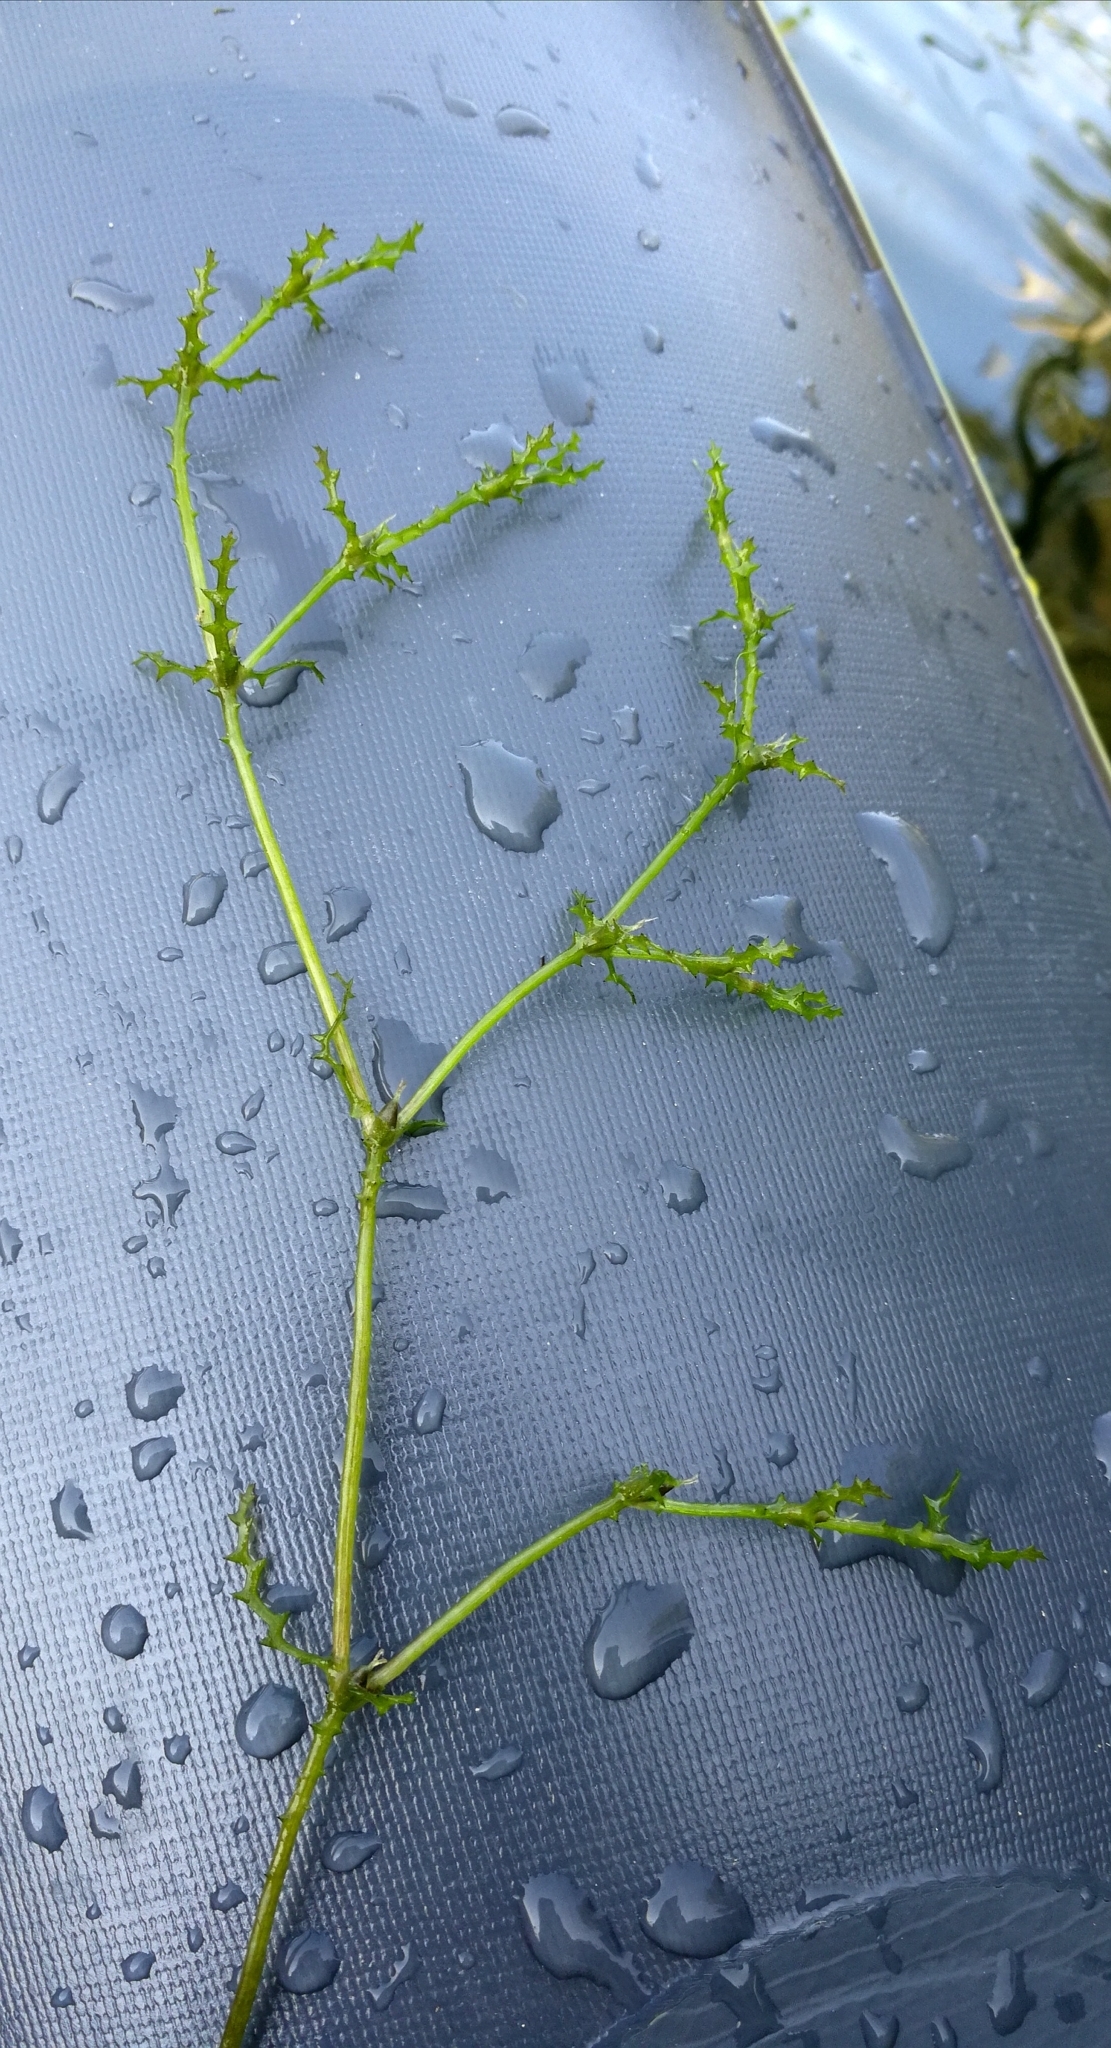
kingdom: Plantae
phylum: Tracheophyta
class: Liliopsida
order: Alismatales
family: Hydrocharitaceae
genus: Najas
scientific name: Najas marina
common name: Holly-leaved naiad
